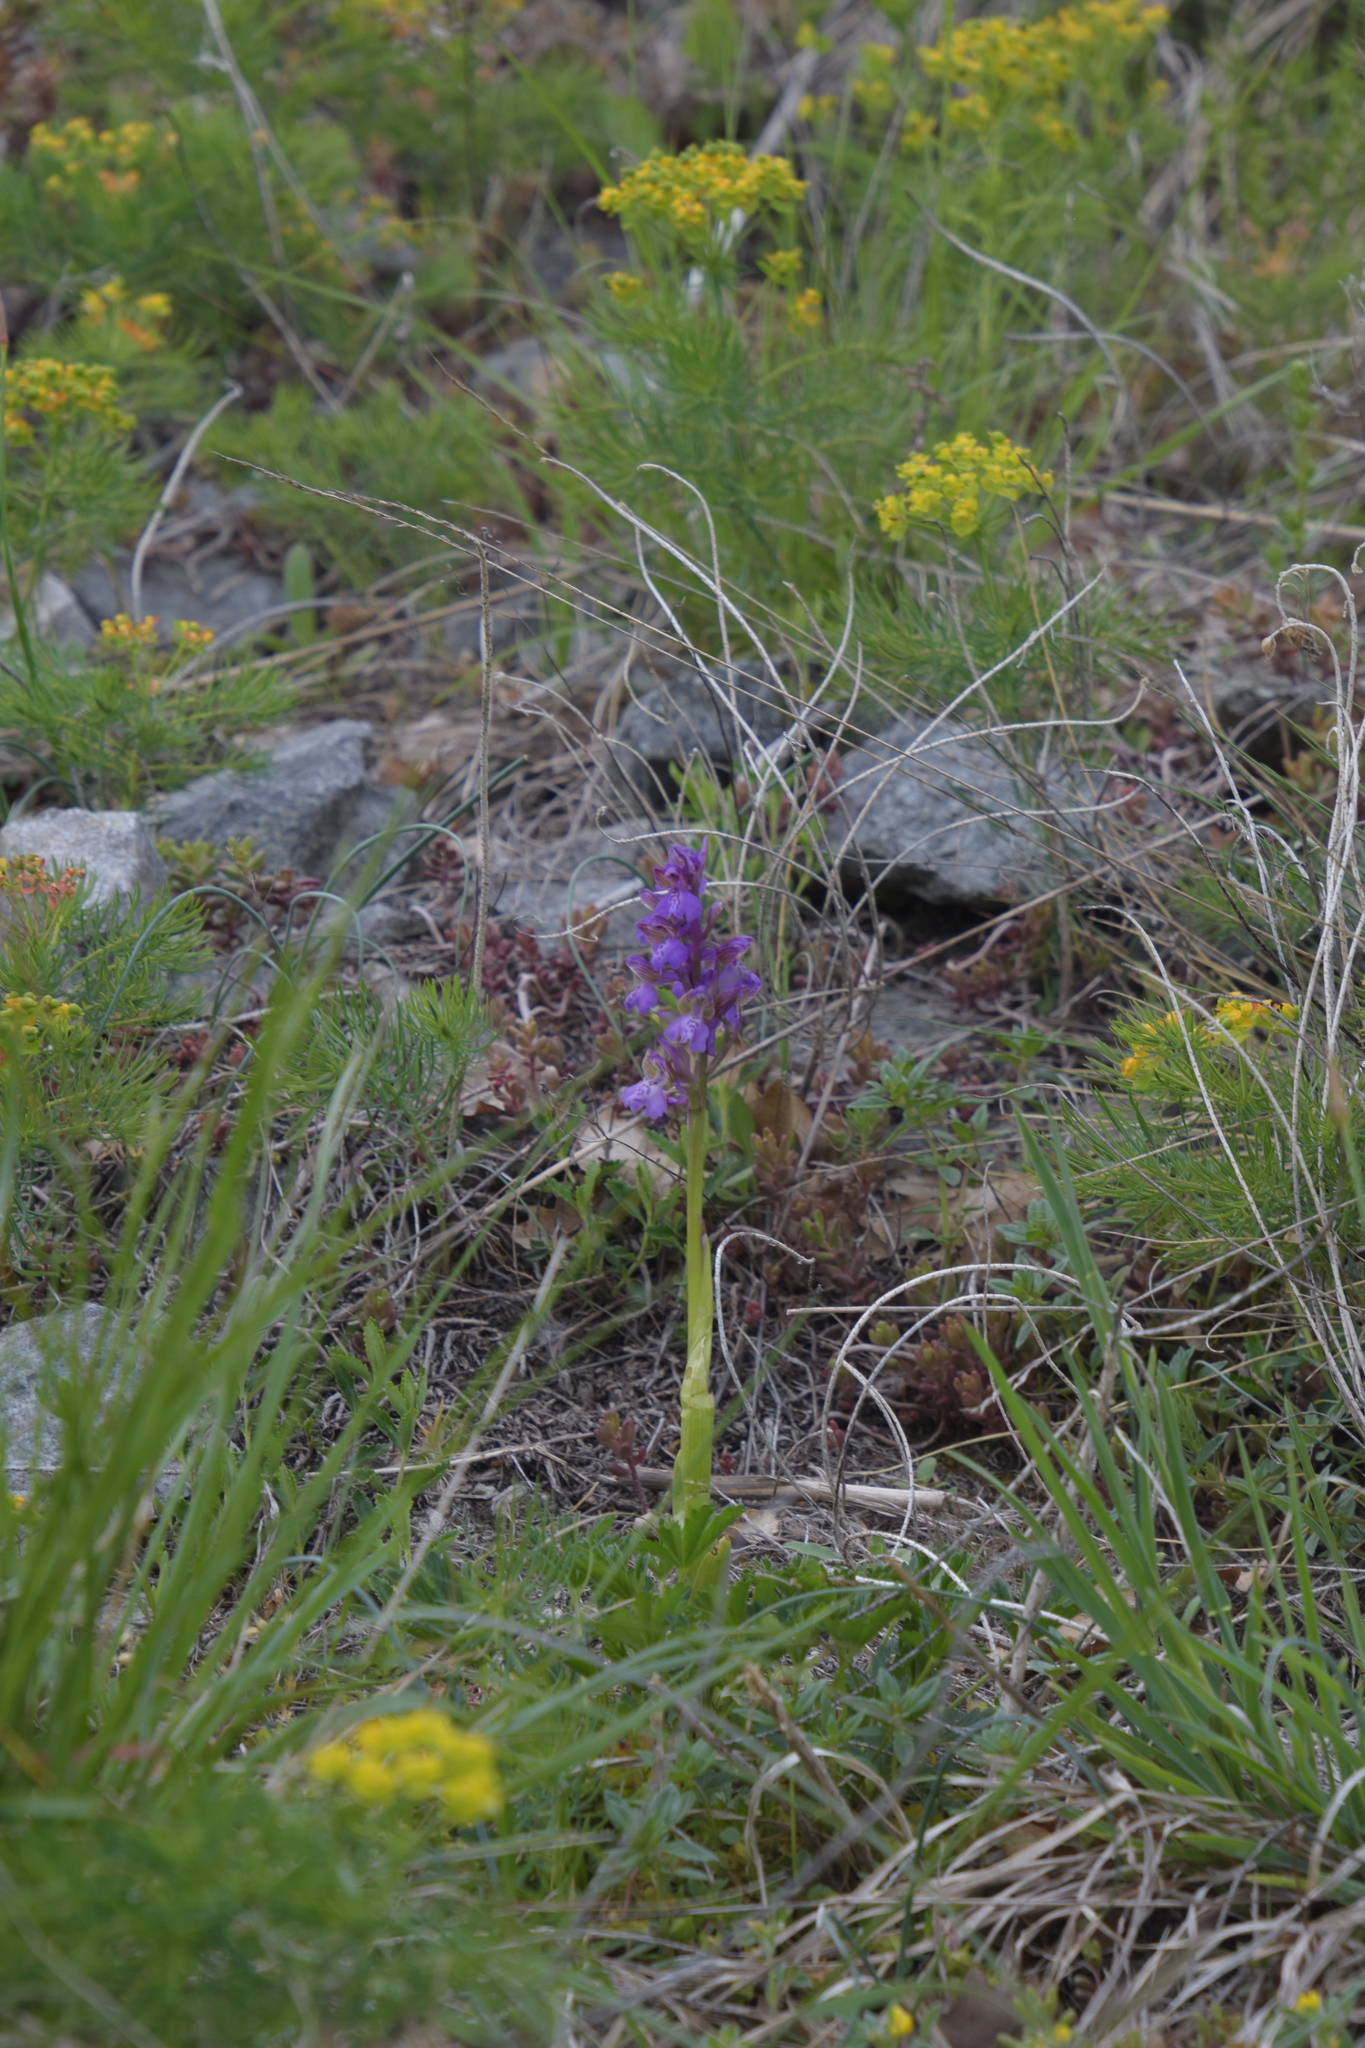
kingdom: Plantae
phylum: Tracheophyta
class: Liliopsida
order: Asparagales
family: Orchidaceae
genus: Anacamptis
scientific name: Anacamptis morio
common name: Green-winged orchid
